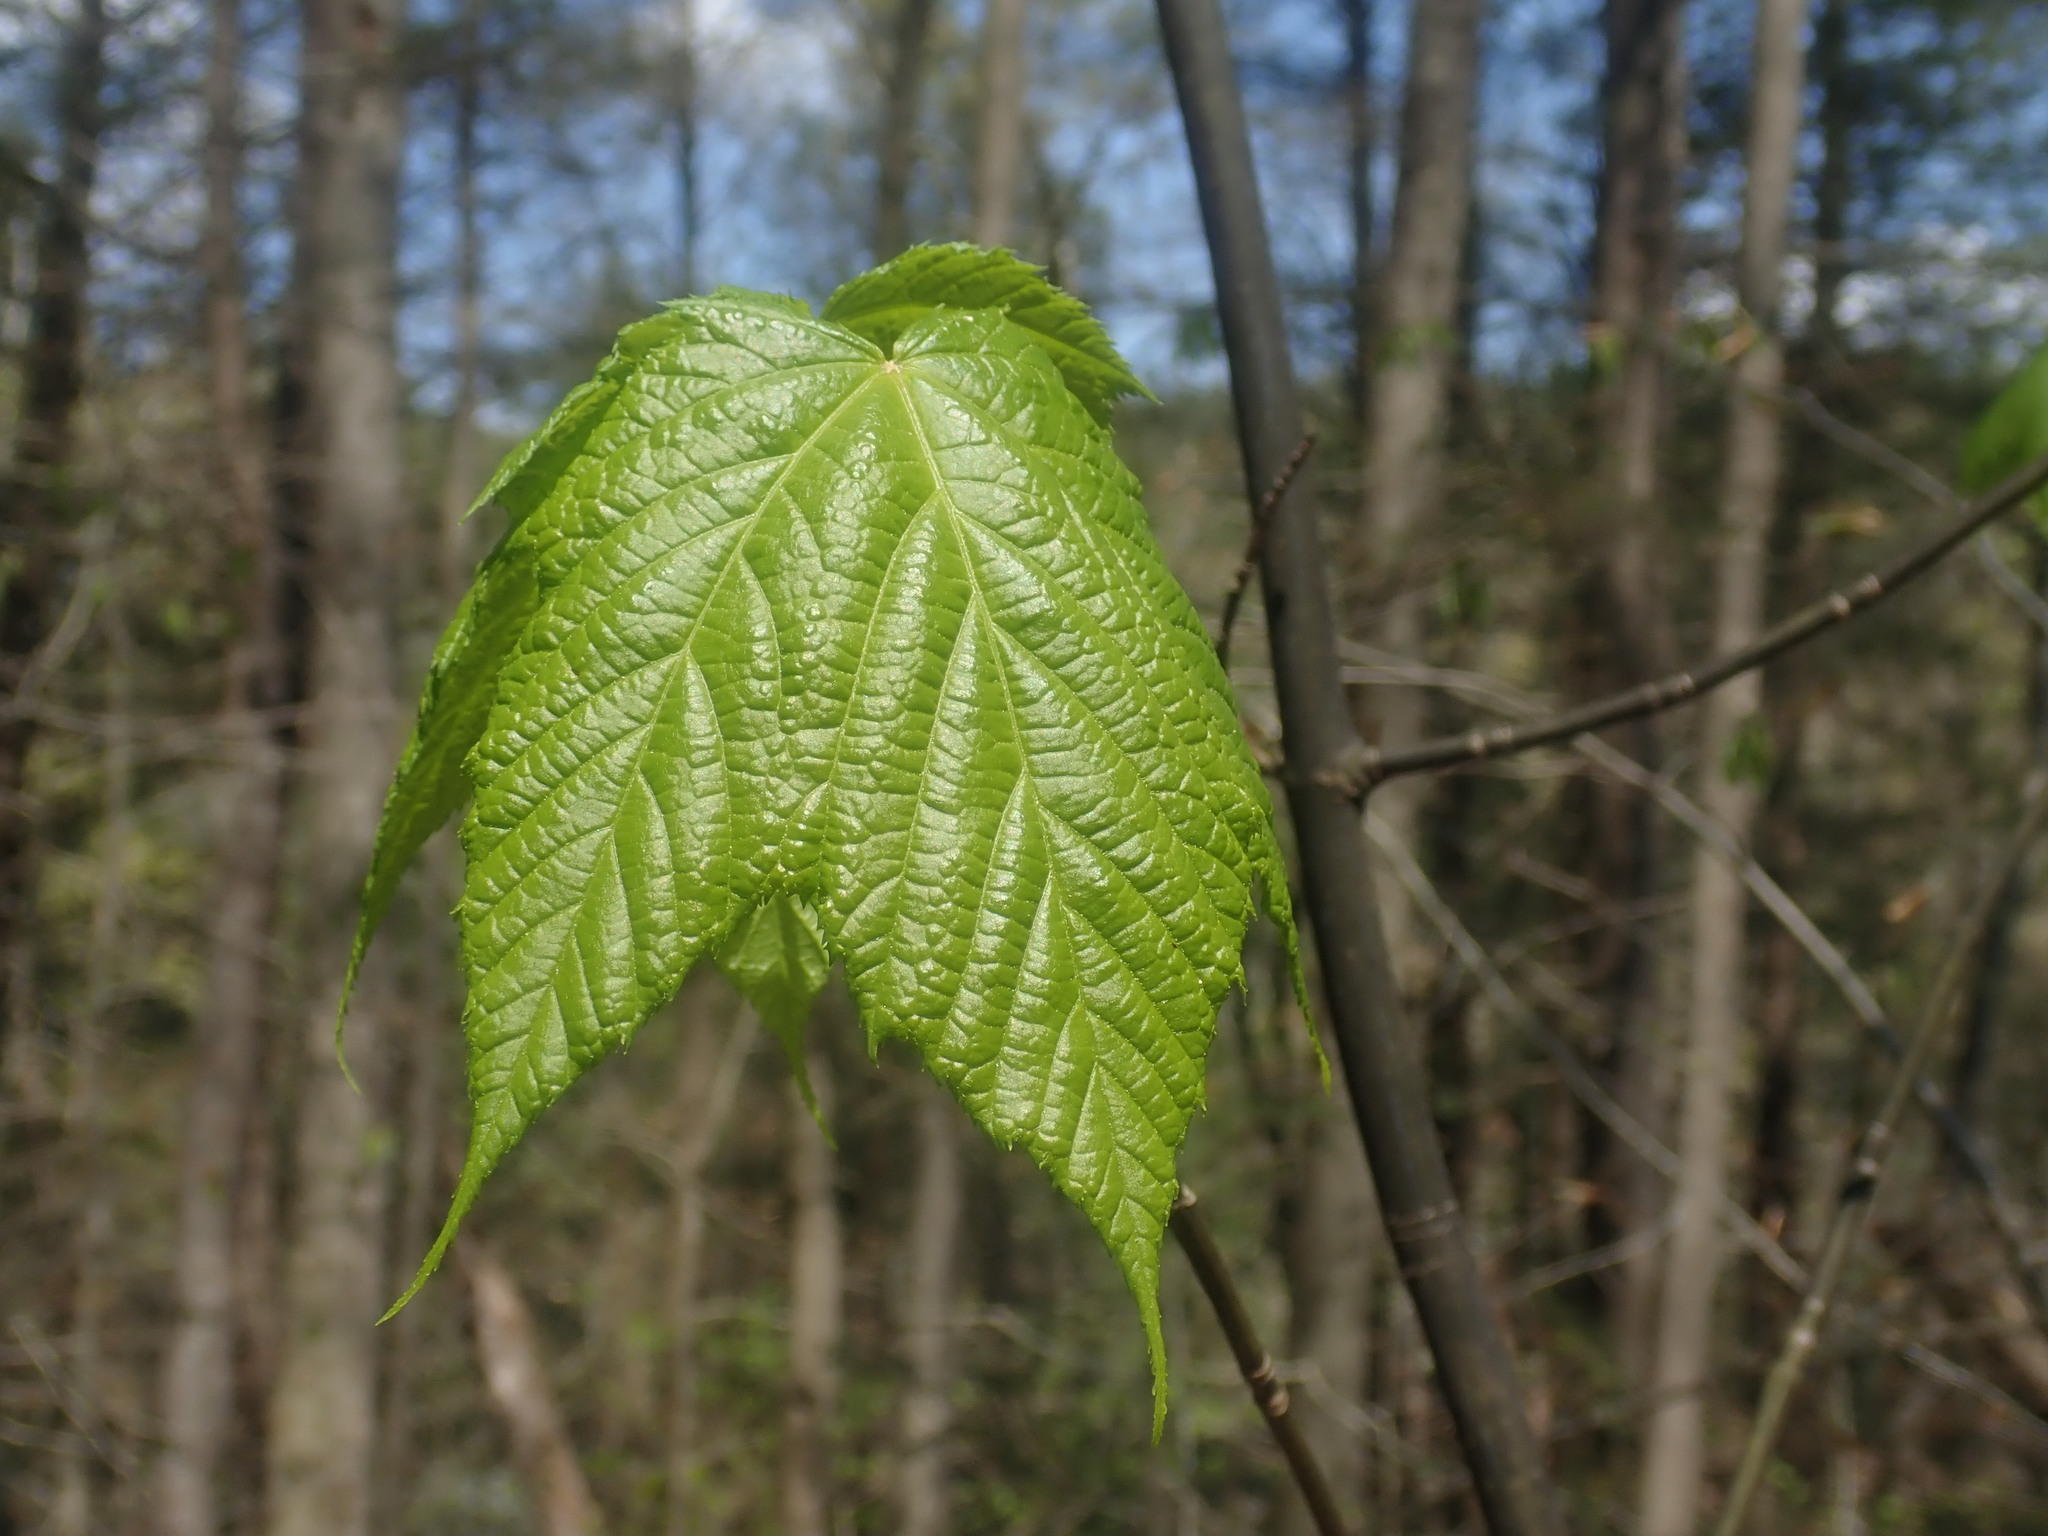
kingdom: Plantae
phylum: Tracheophyta
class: Magnoliopsida
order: Sapindales
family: Sapindaceae
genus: Acer
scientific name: Acer pensylvanicum
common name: Moosewood
